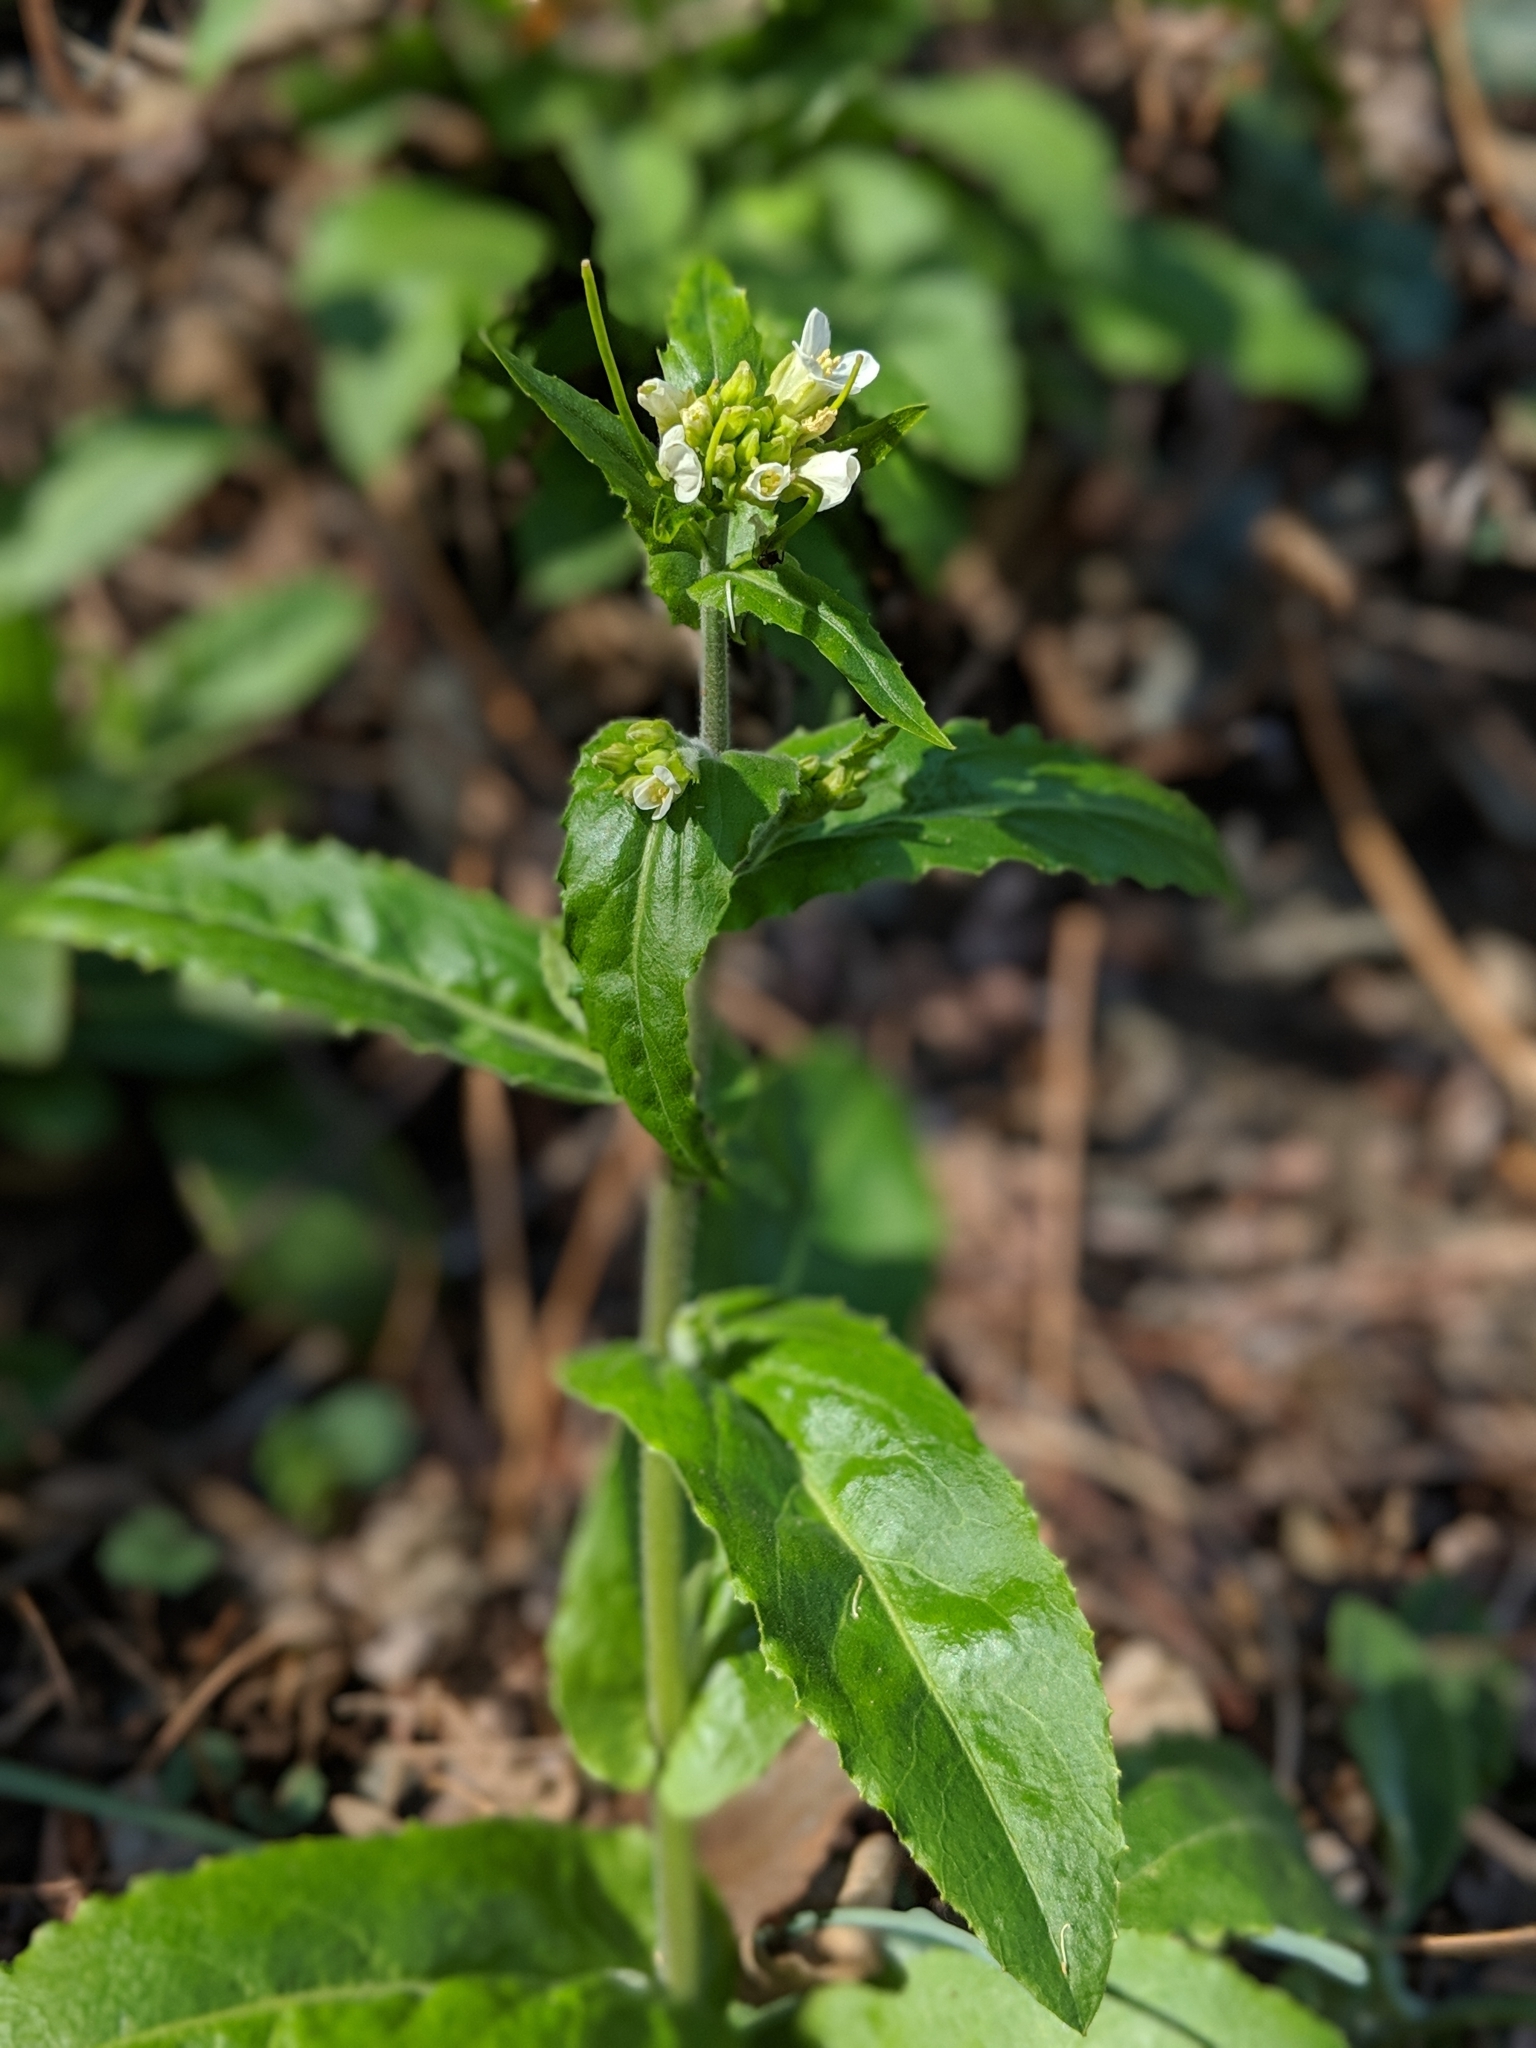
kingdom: Plantae
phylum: Tracheophyta
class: Magnoliopsida
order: Brassicales
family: Brassicaceae
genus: Pseudoturritis
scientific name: Pseudoturritis turrita
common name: Tower cress
